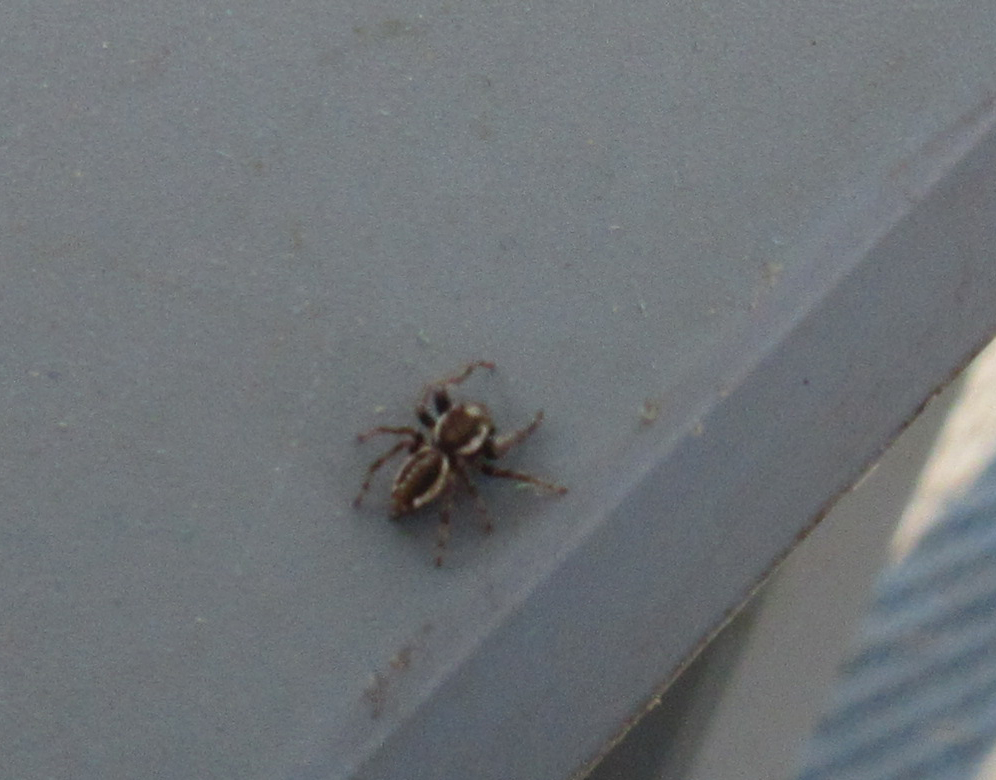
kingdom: Animalia
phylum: Arthropoda
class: Arachnida
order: Araneae
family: Salticidae
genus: Eris
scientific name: Eris militaris
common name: Bronze jumper
